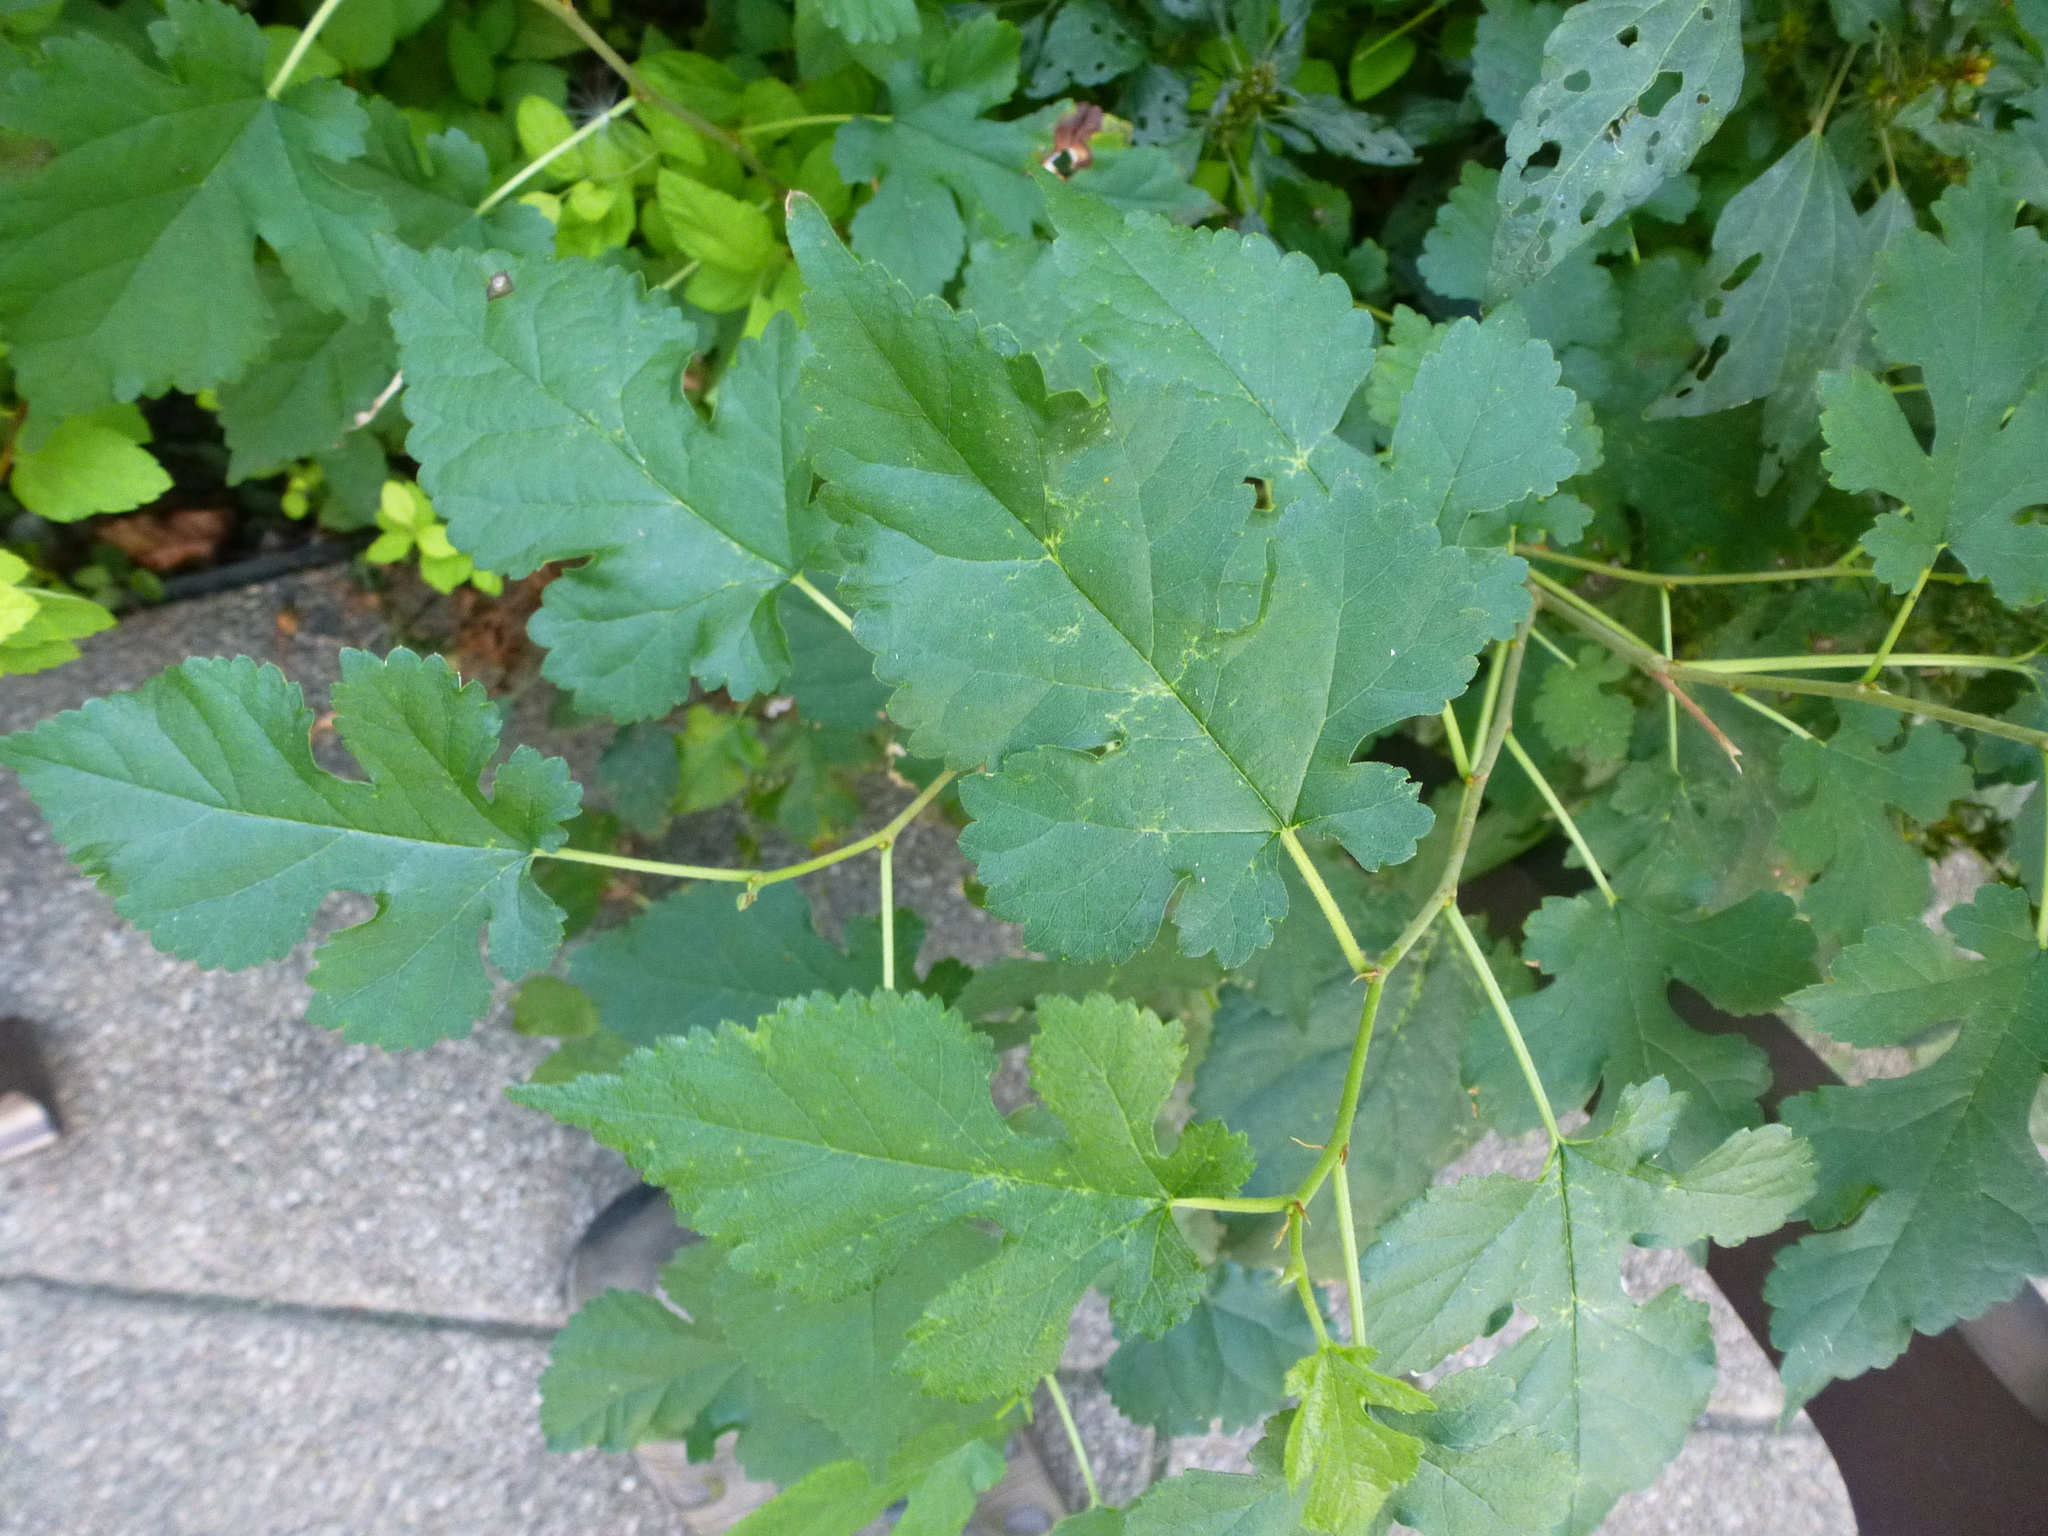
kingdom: Plantae
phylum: Tracheophyta
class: Magnoliopsida
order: Rosales
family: Moraceae
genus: Morus
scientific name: Morus alba
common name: White mulberry
